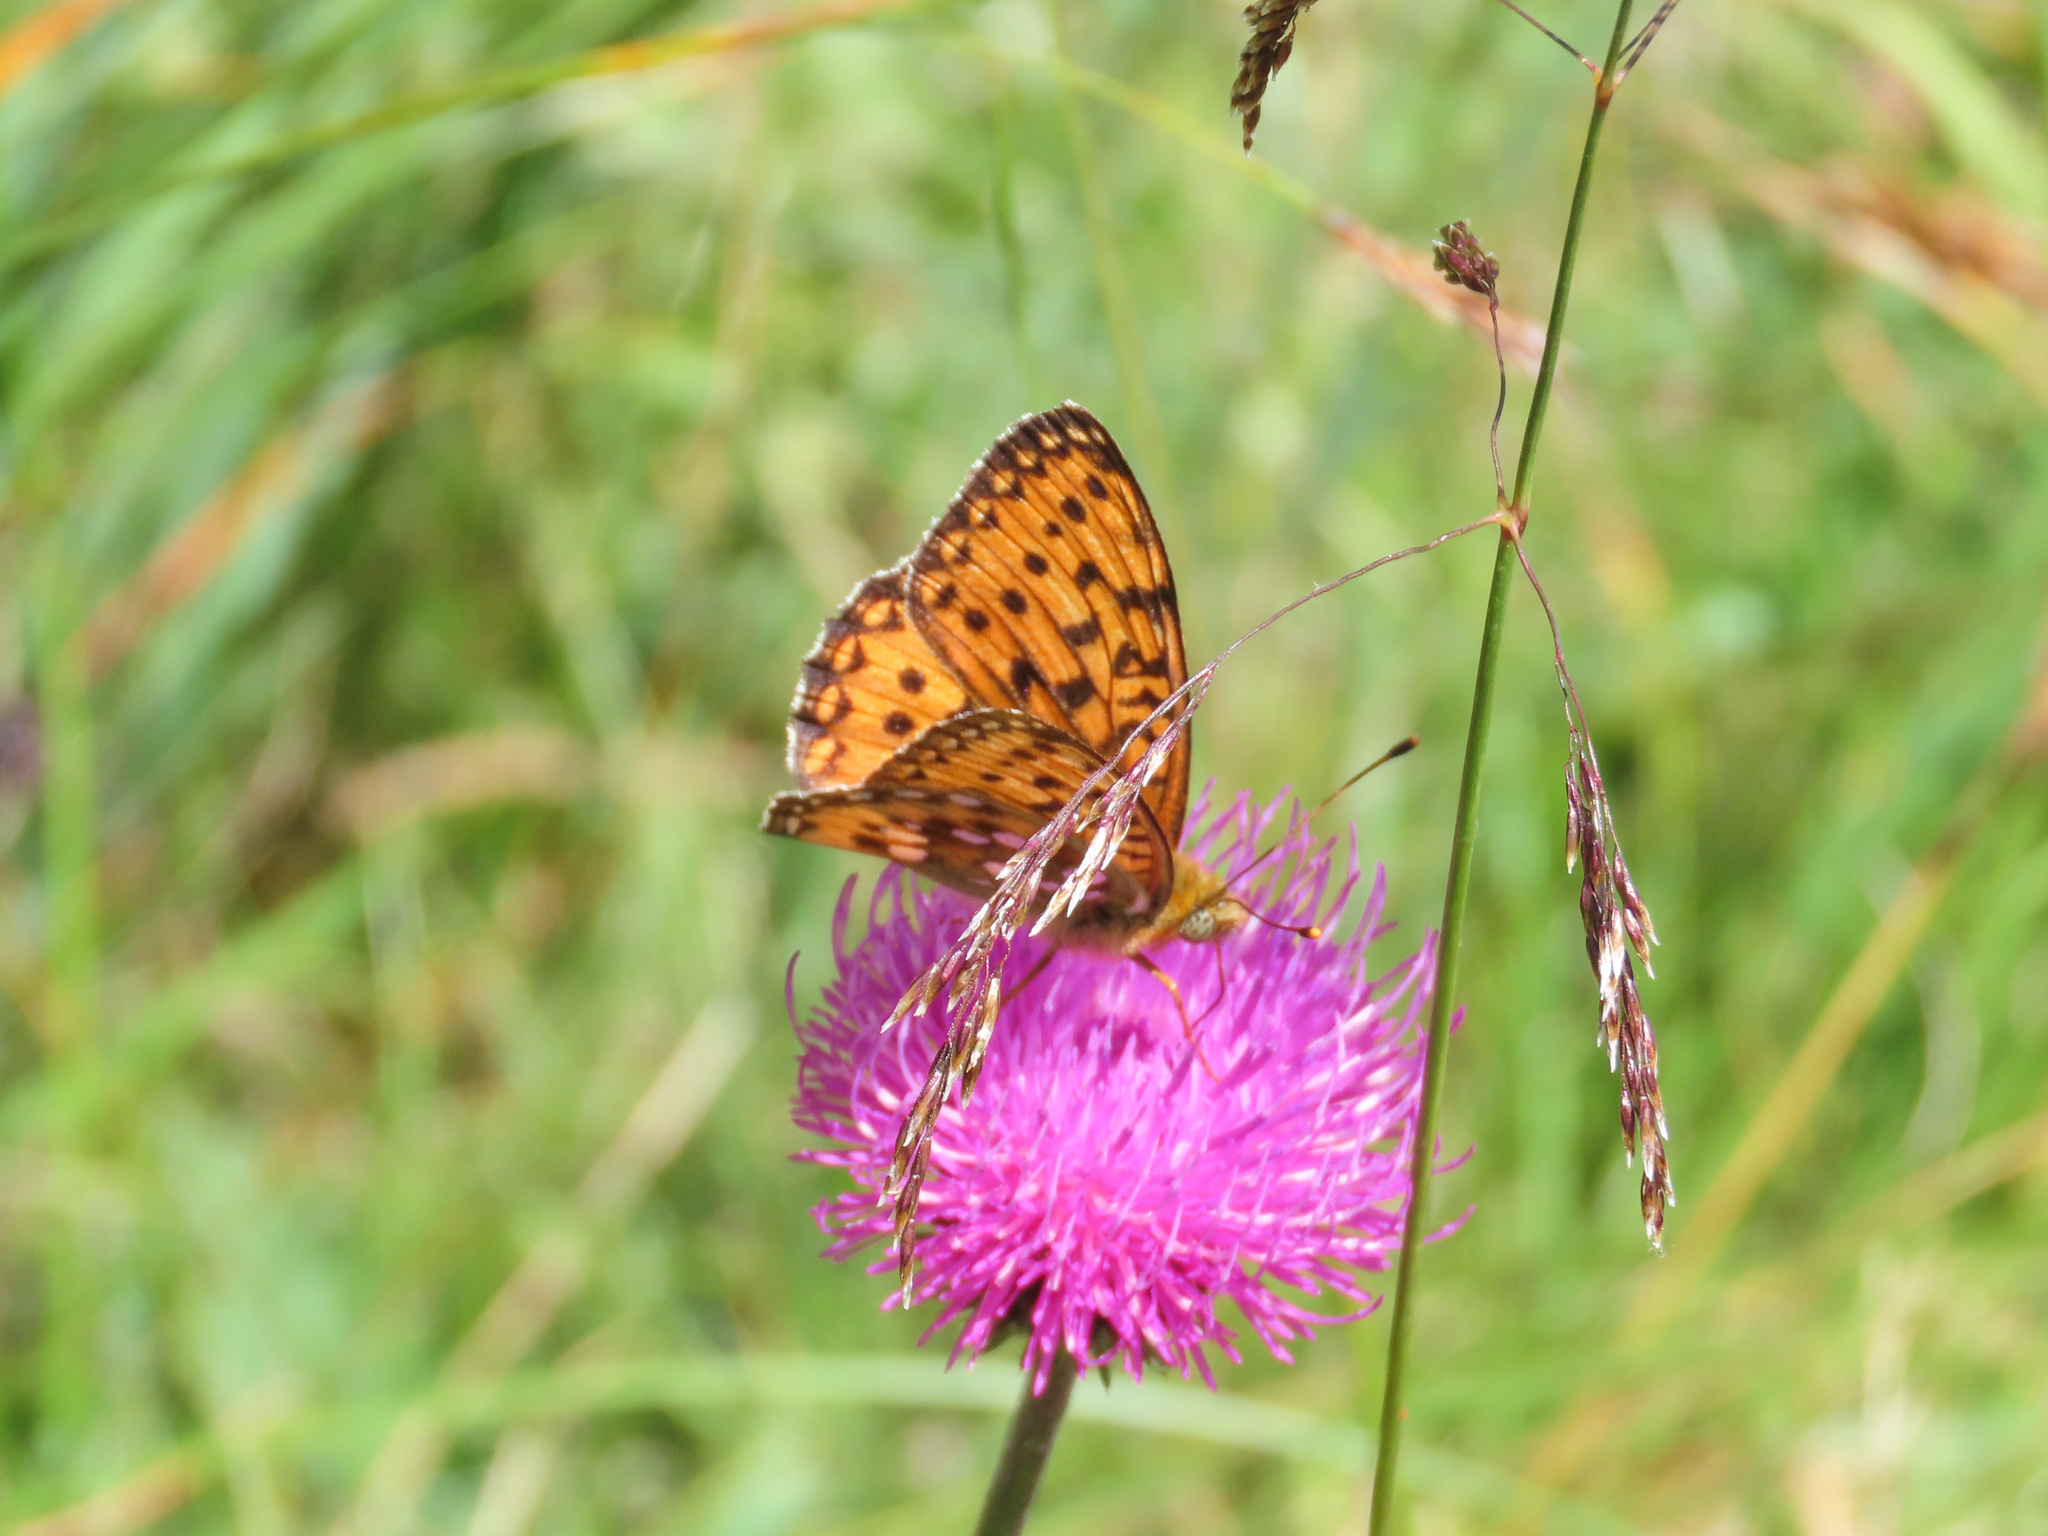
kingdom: Animalia
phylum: Arthropoda
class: Insecta
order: Lepidoptera
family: Nymphalidae
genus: Speyeria
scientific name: Speyeria aglaja
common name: Dark green fritillary
